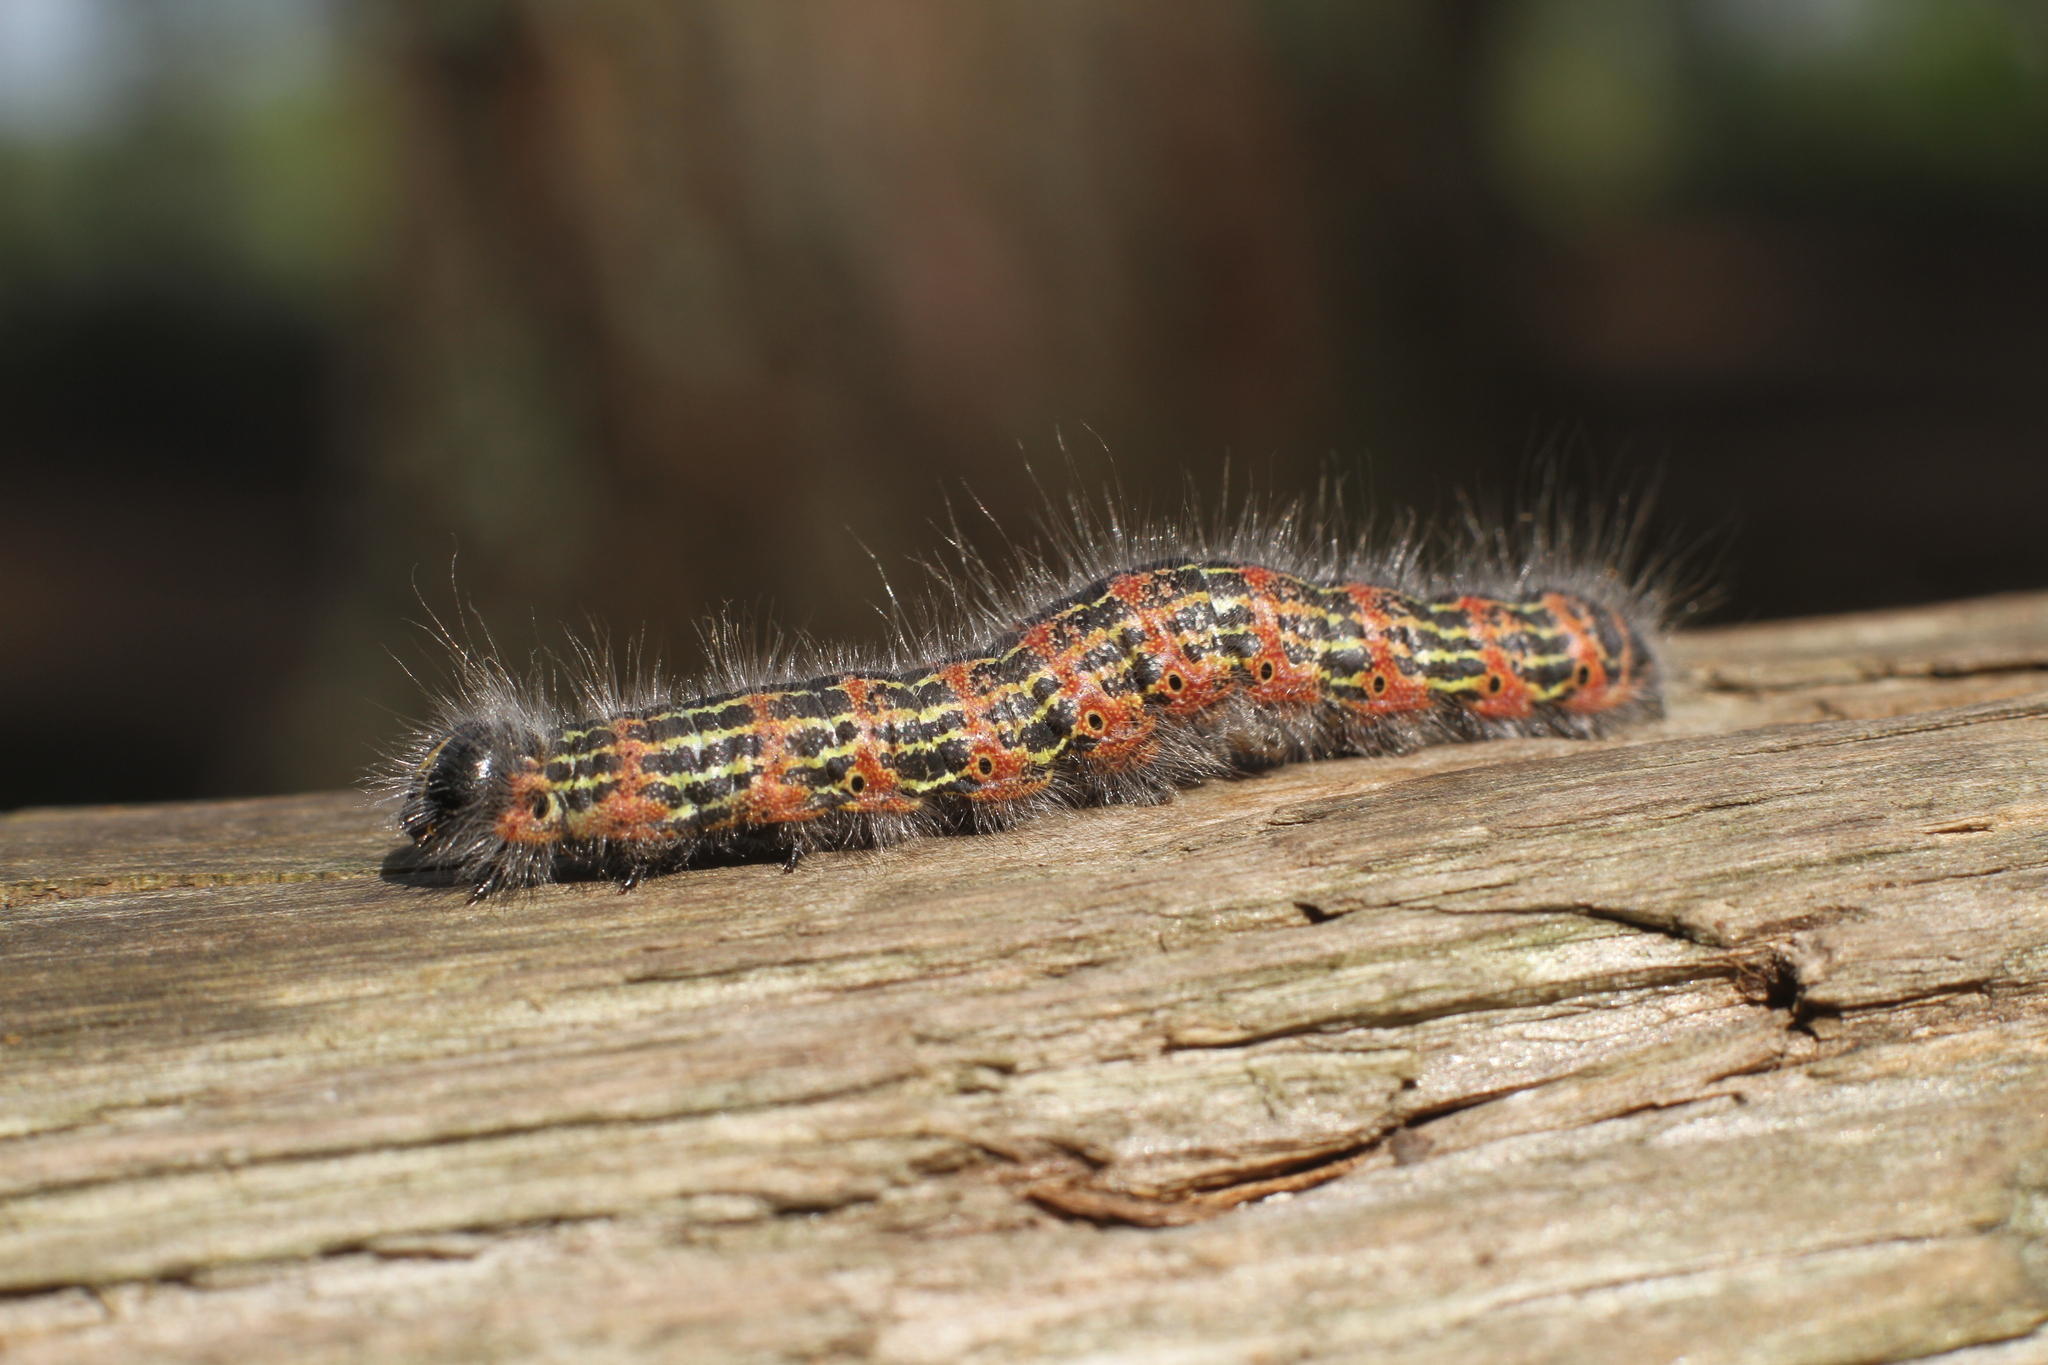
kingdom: Animalia
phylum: Arthropoda
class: Insecta
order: Lepidoptera
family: Notodontidae
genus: Phalera
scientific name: Phalera bucephala
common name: Buff-tip
